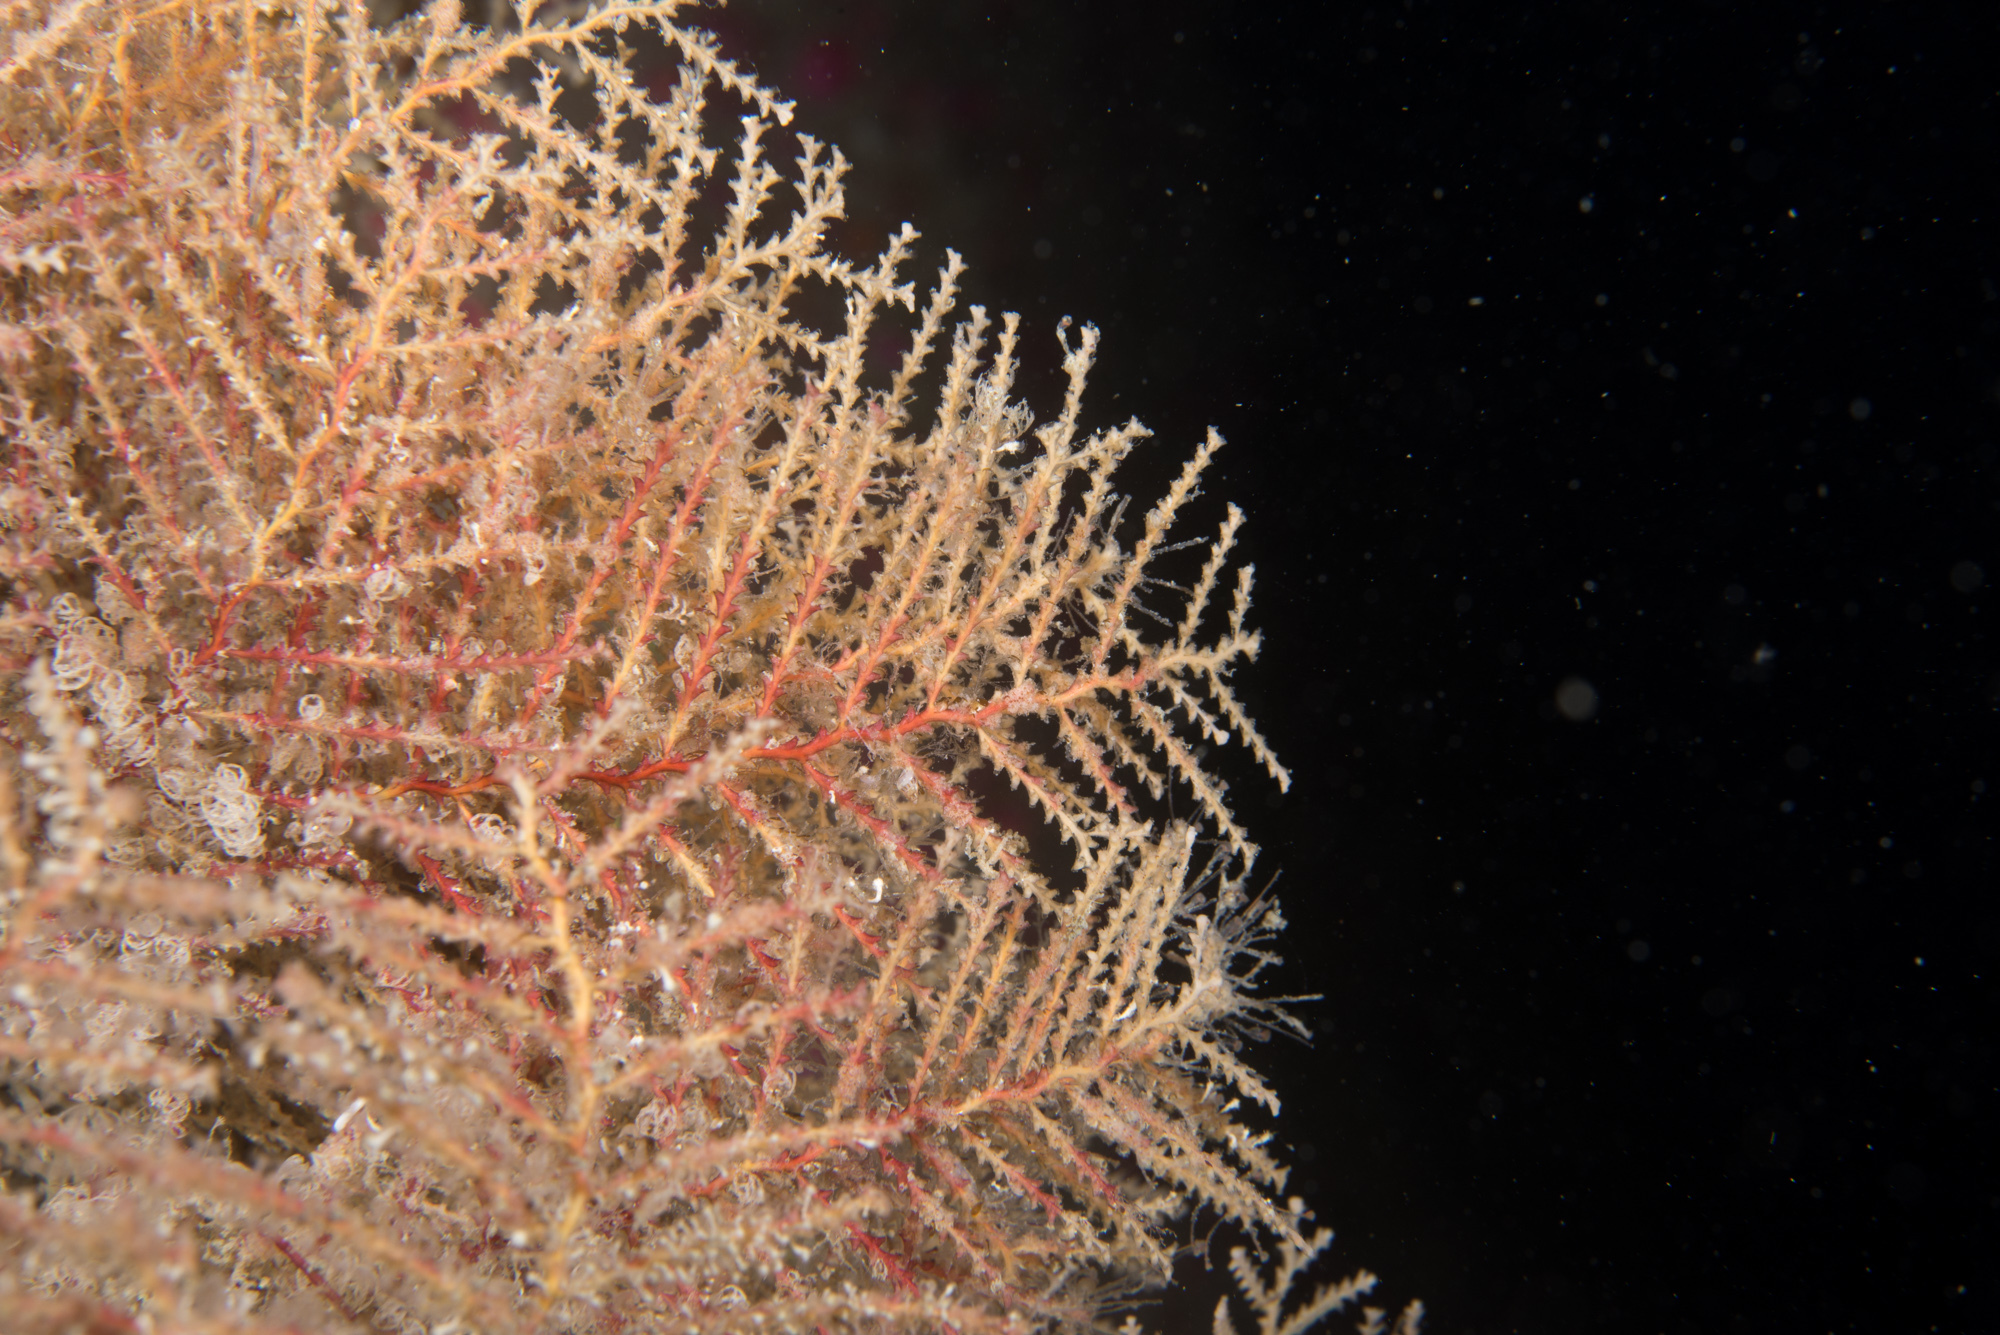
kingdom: Animalia
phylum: Cnidaria
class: Hydrozoa
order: Leptothecata
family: Sertulariidae
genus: Abietinaria
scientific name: Abietinaria abietina
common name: Sea fir
